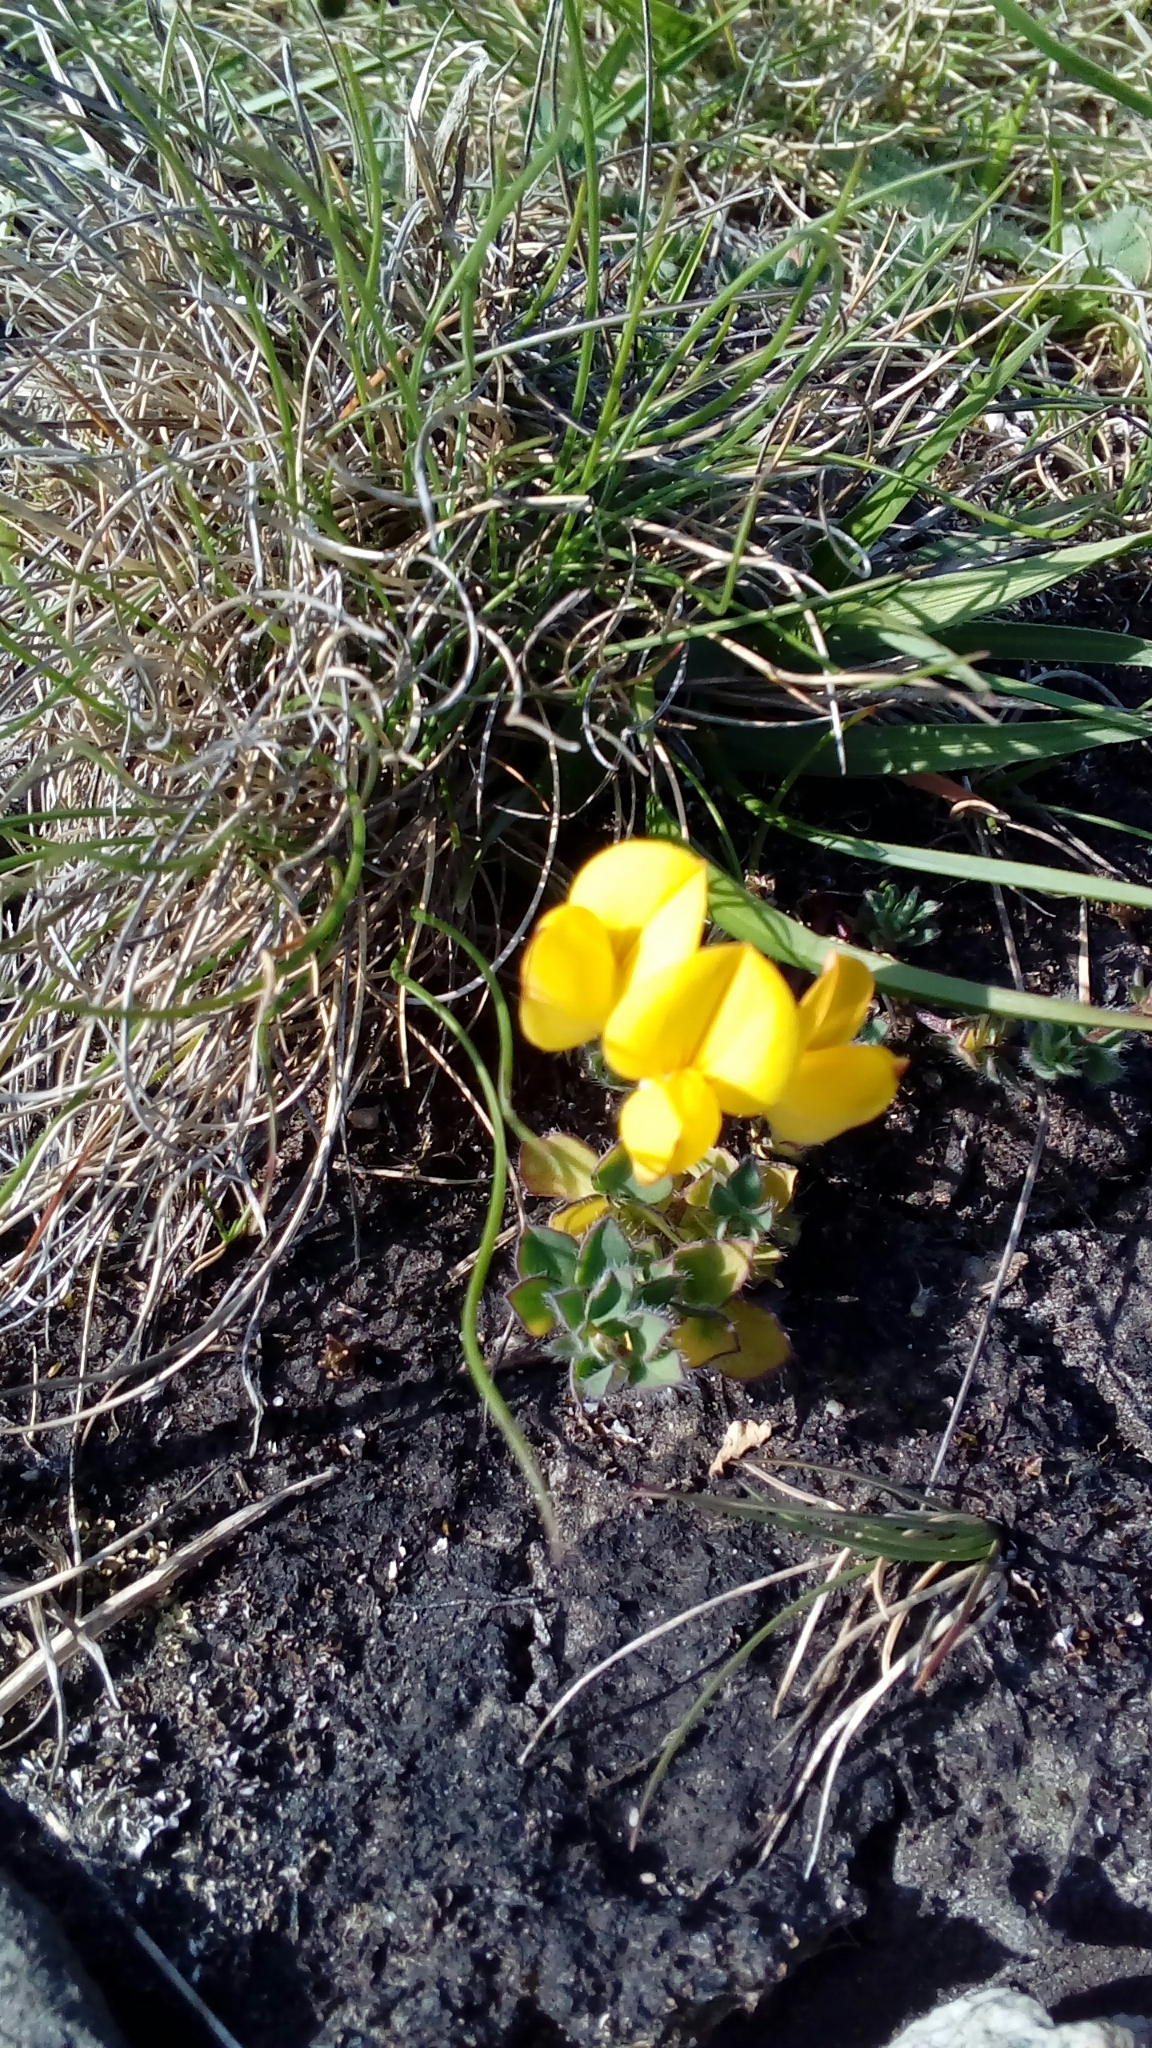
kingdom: Plantae
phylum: Tracheophyta
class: Magnoliopsida
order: Fabales
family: Fabaceae
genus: Lotus
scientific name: Lotus corniculatus
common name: Common bird's-foot-trefoil
